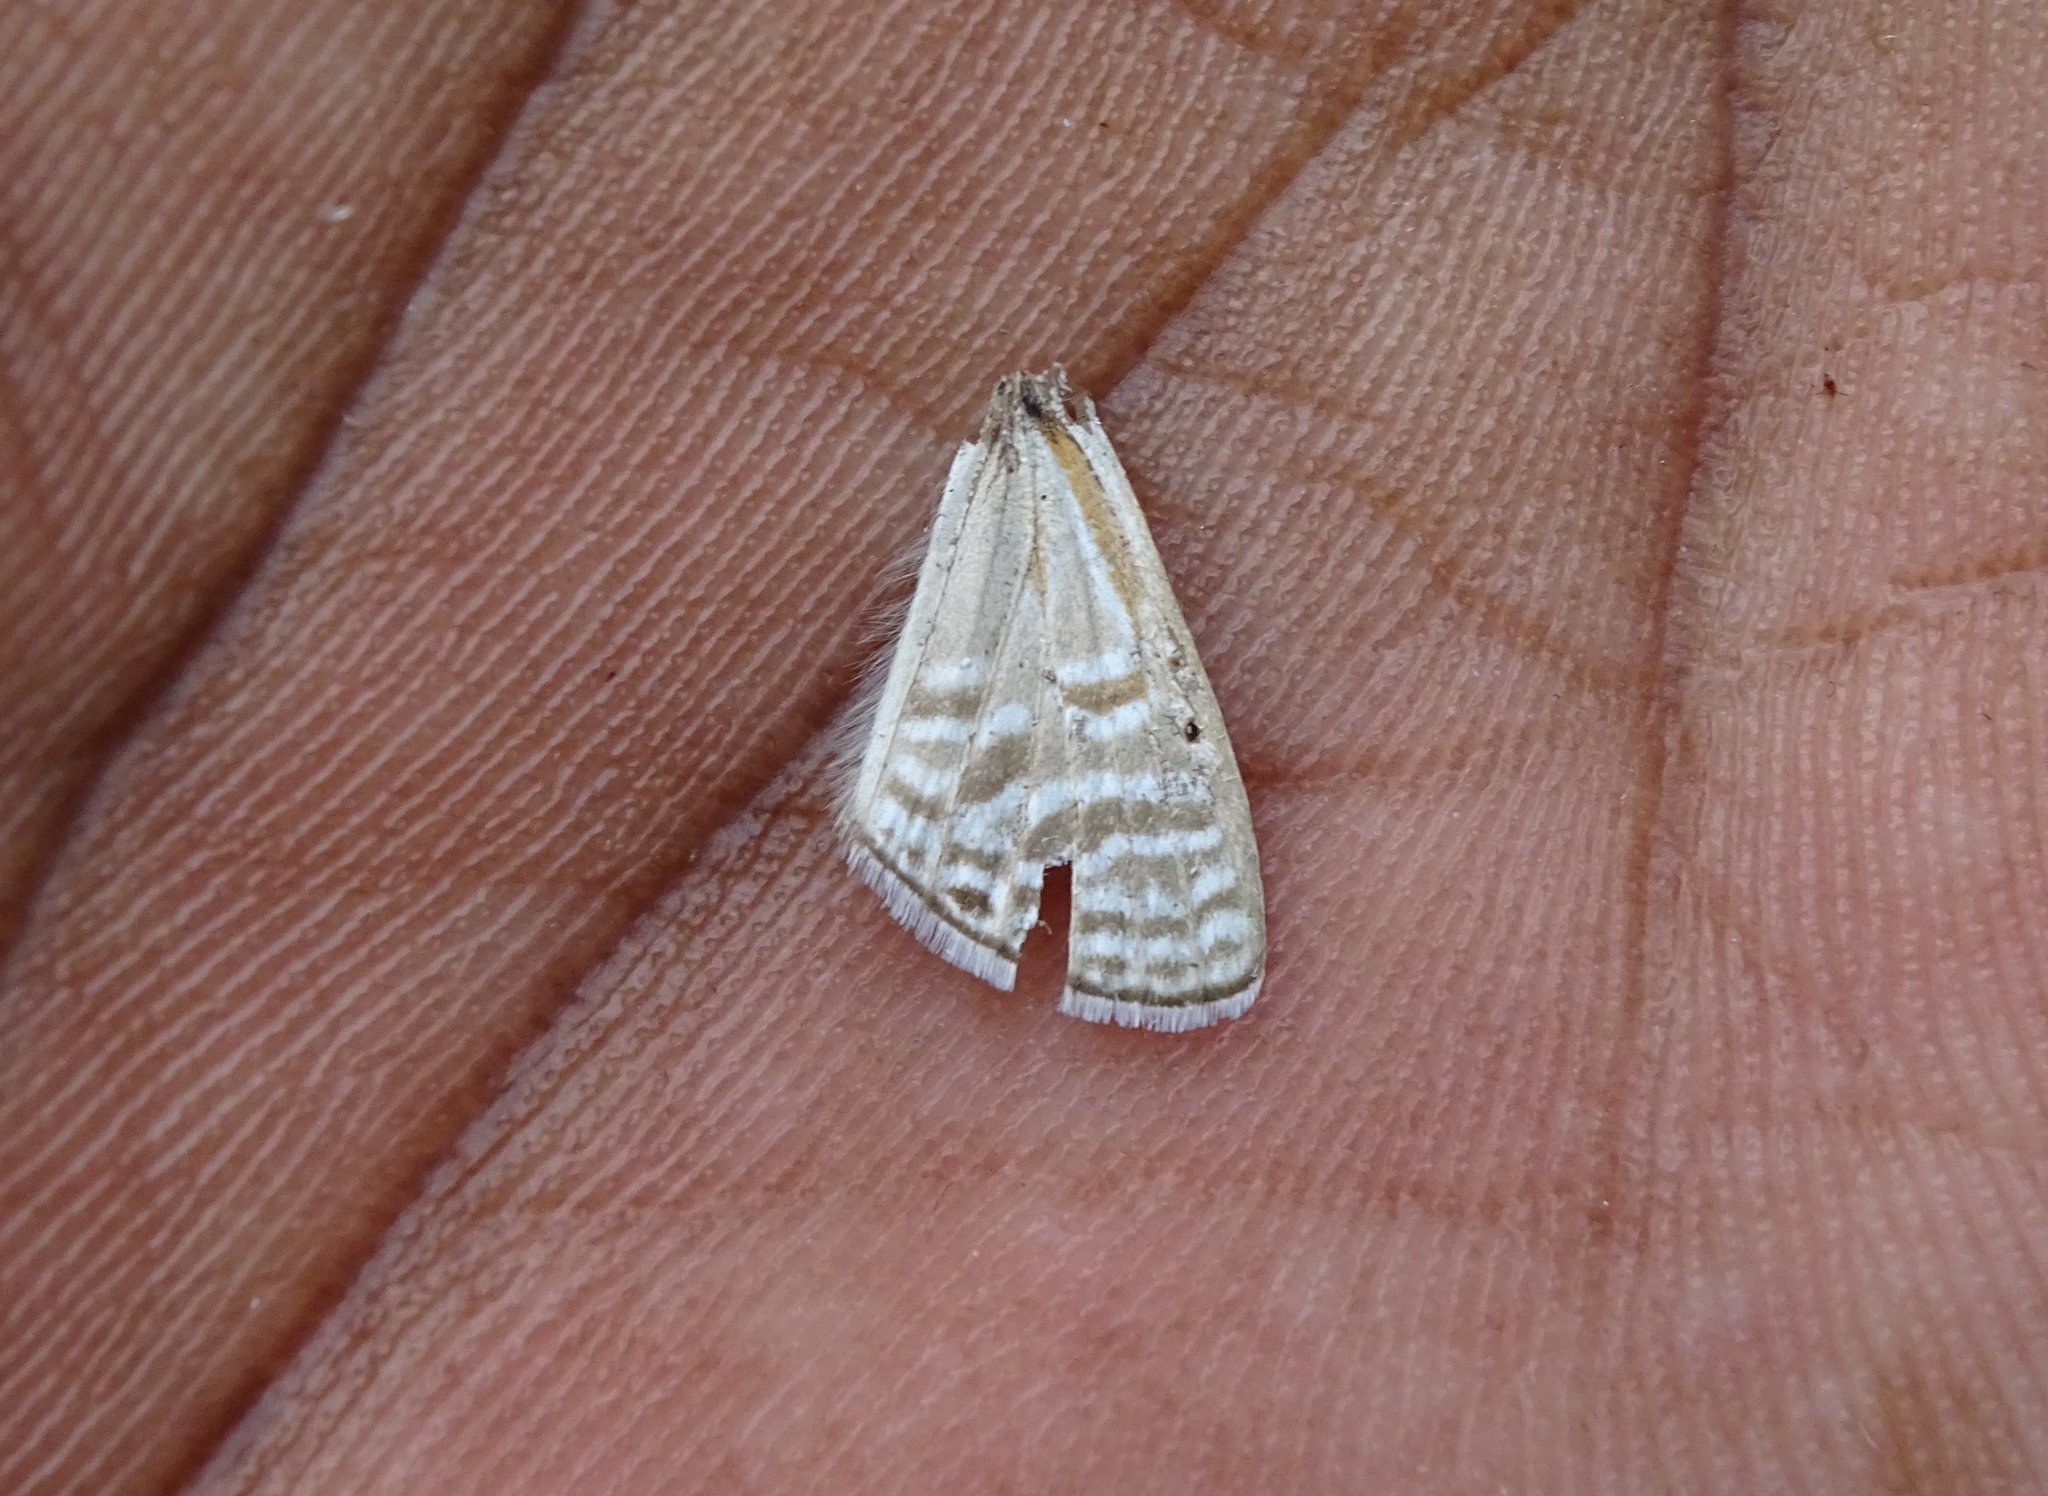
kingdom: Animalia
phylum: Arthropoda
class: Insecta
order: Lepidoptera
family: Lycaenidae
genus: Jamides
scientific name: Jamides celeno
